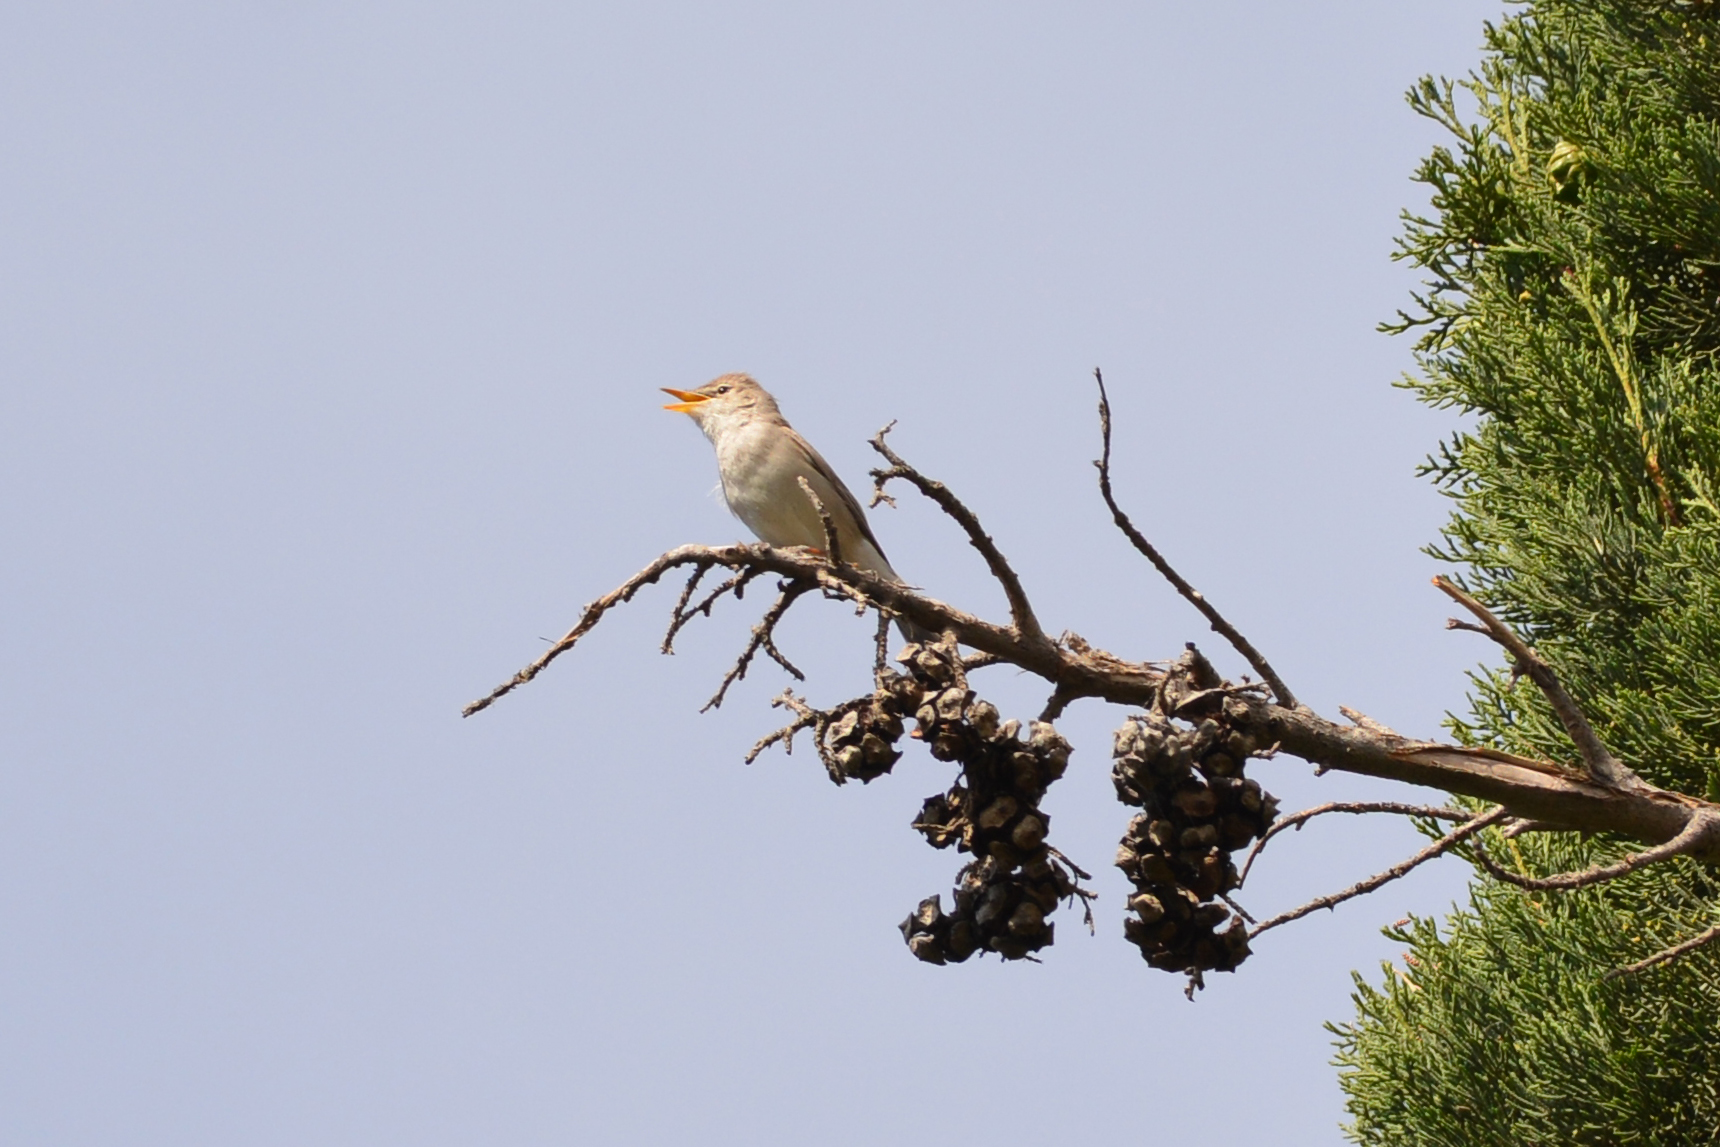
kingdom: Animalia
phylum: Chordata
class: Aves
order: Passeriformes
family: Acrocephalidae
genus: Iduna
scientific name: Iduna pallida
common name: Eastern olivaceous warbler
